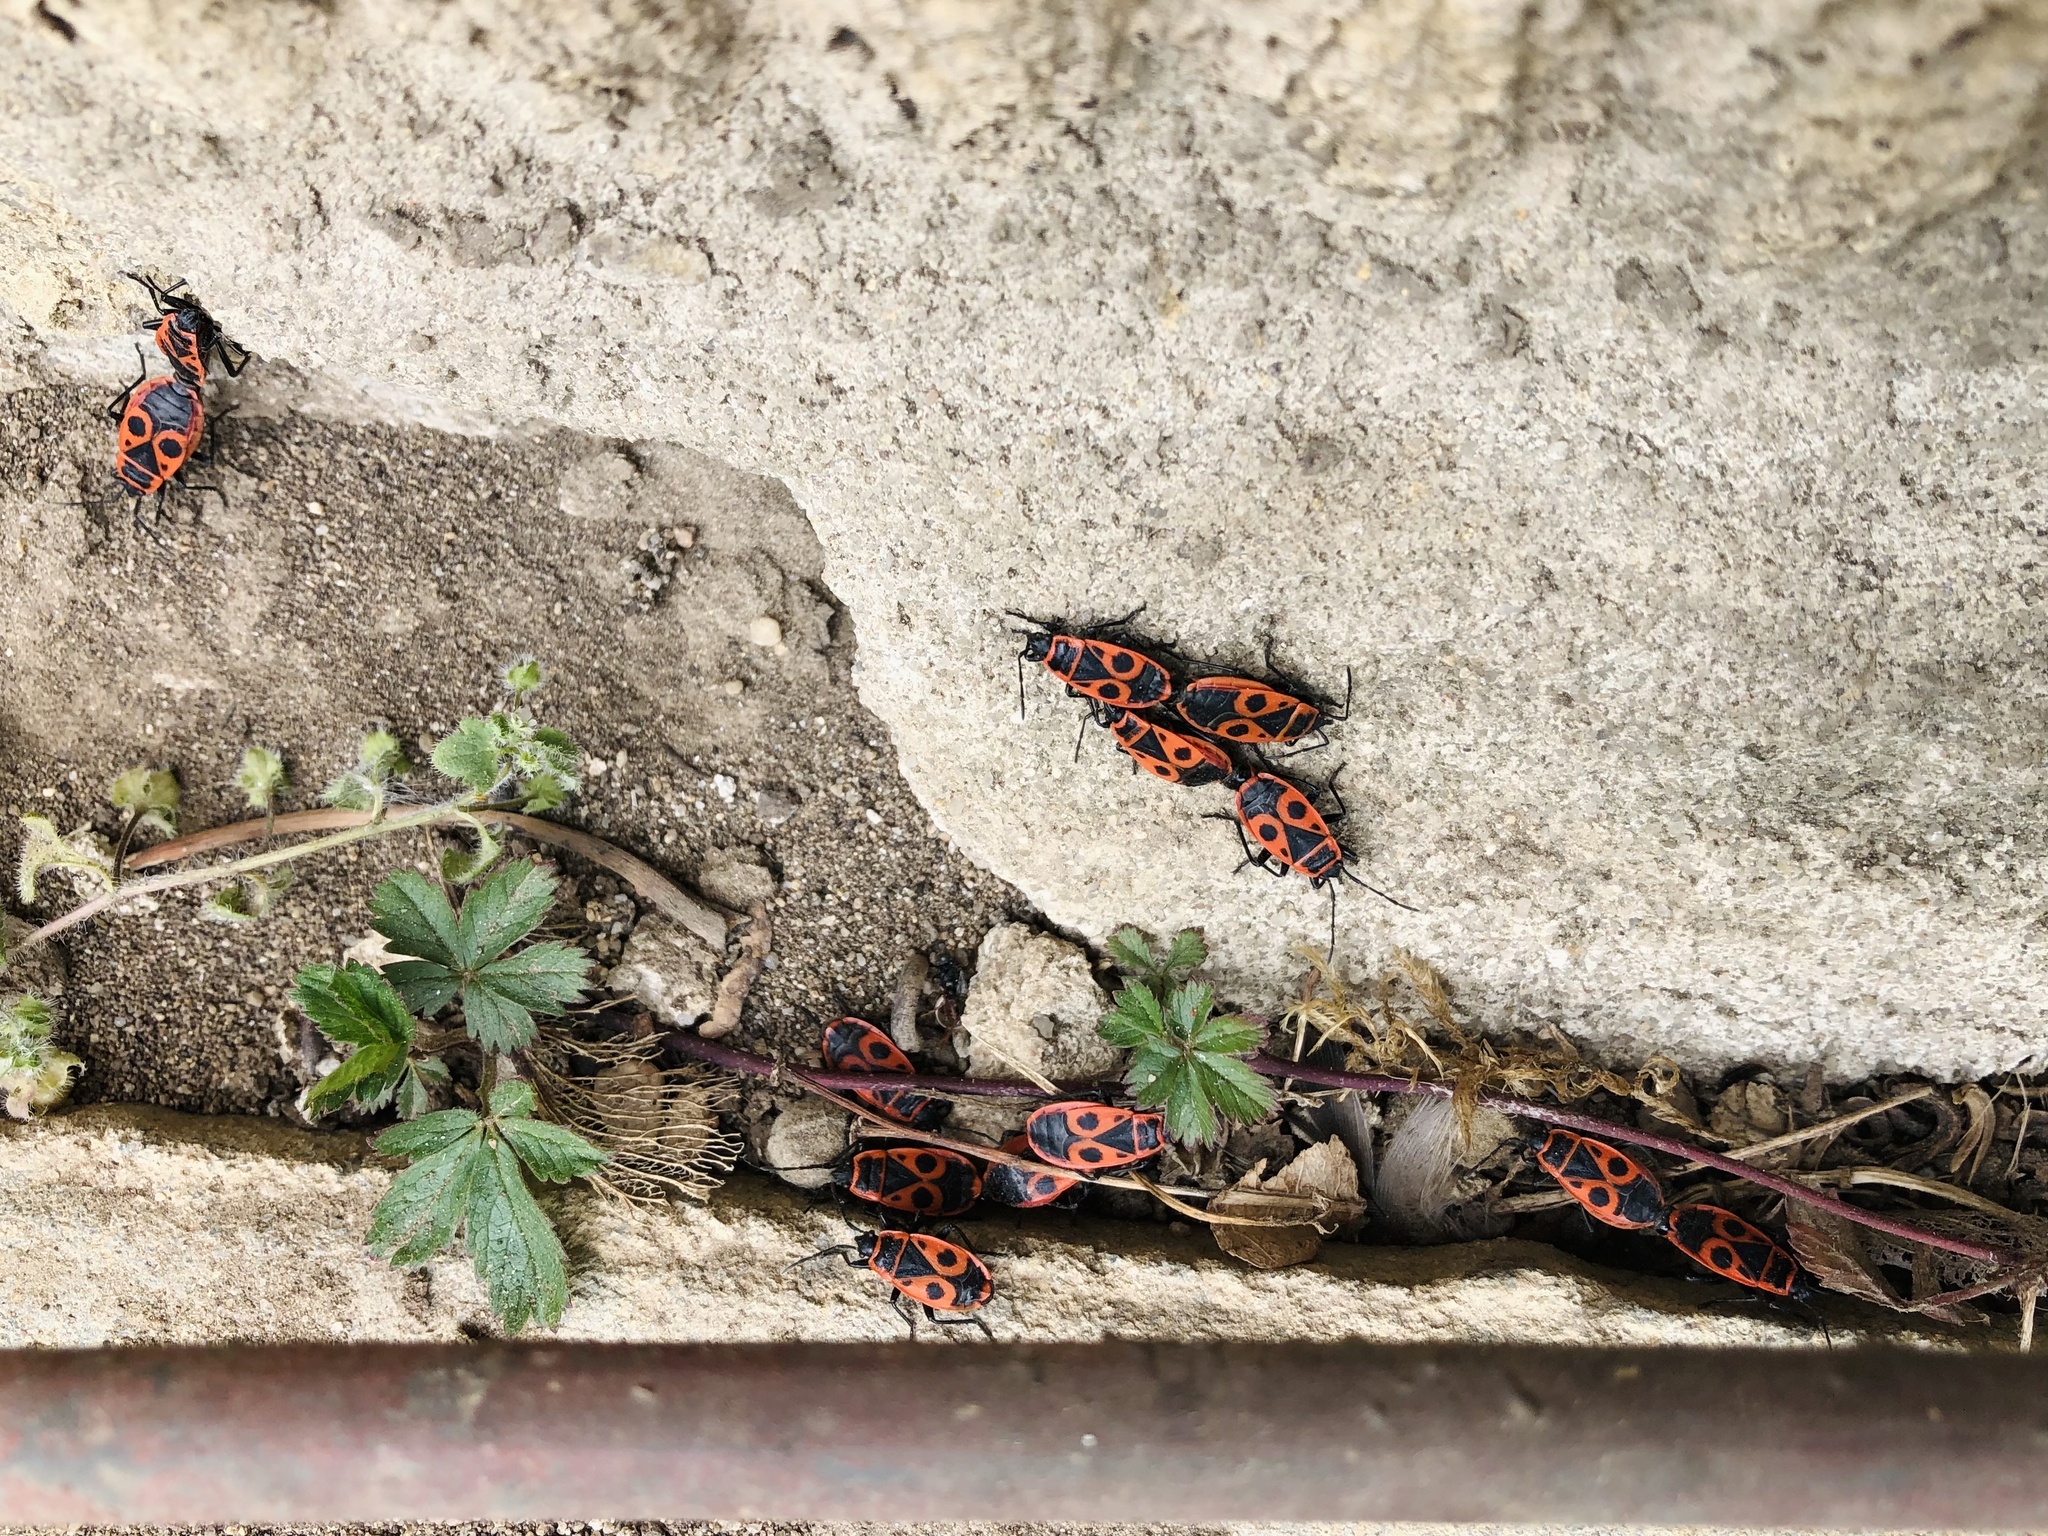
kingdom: Animalia
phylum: Arthropoda
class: Insecta
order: Hemiptera
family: Pyrrhocoridae
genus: Pyrrhocoris
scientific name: Pyrrhocoris apterus
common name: Firebug
